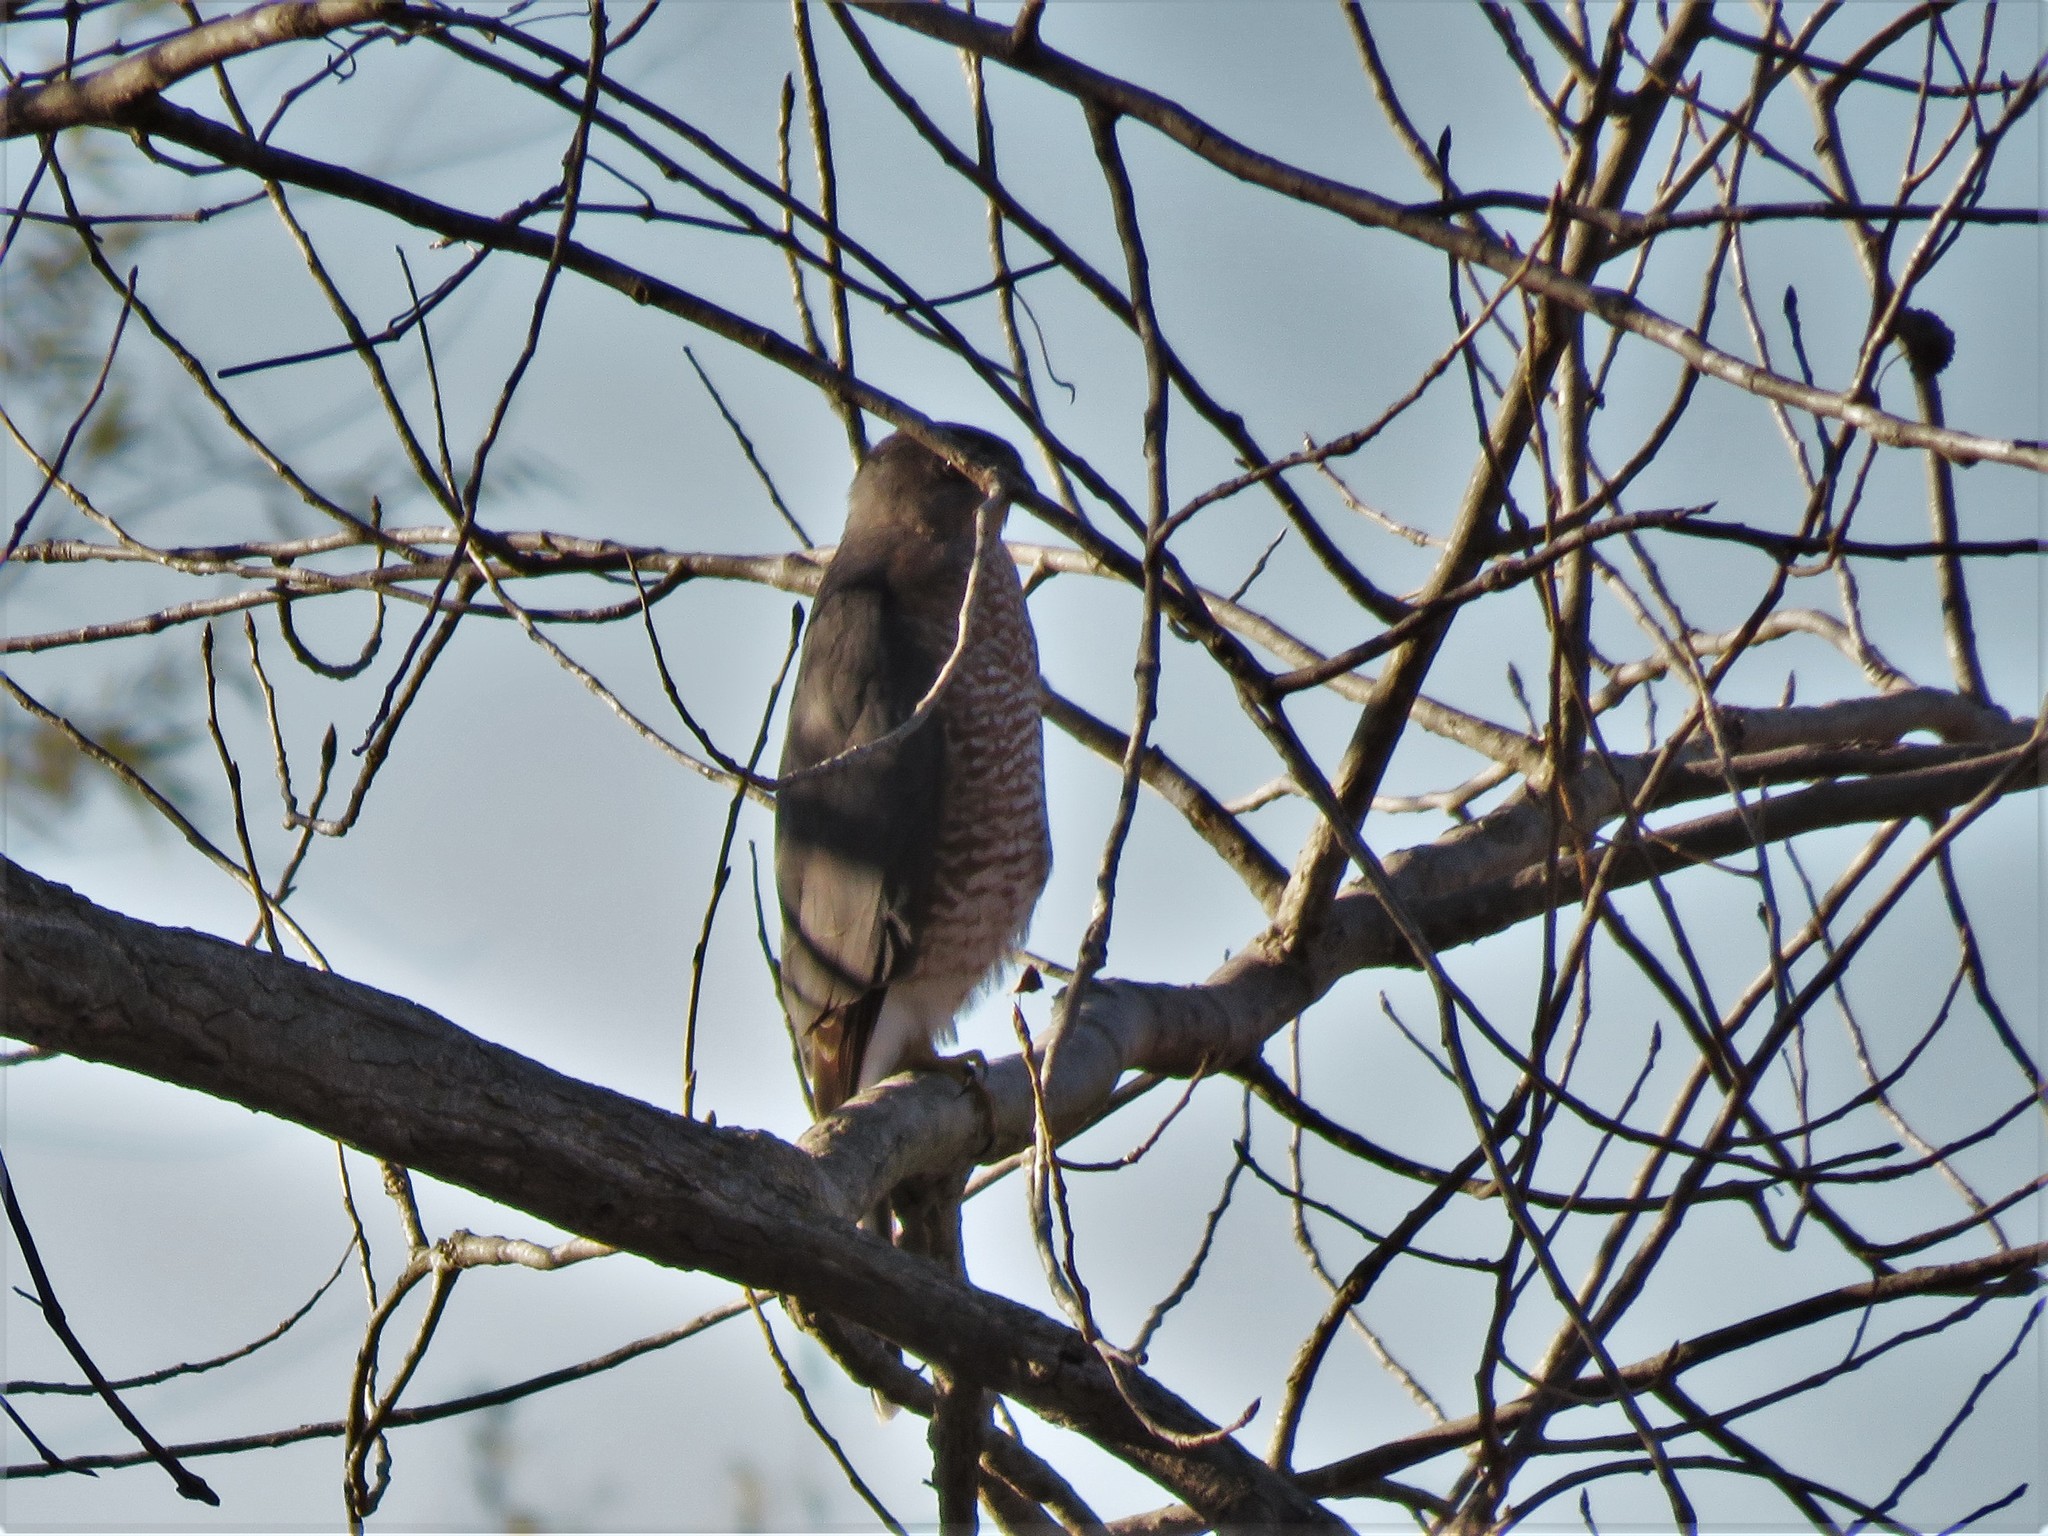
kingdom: Animalia
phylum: Chordata
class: Aves
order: Accipitriformes
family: Accipitridae
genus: Accipiter
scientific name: Accipiter cooperii
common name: Cooper's hawk
